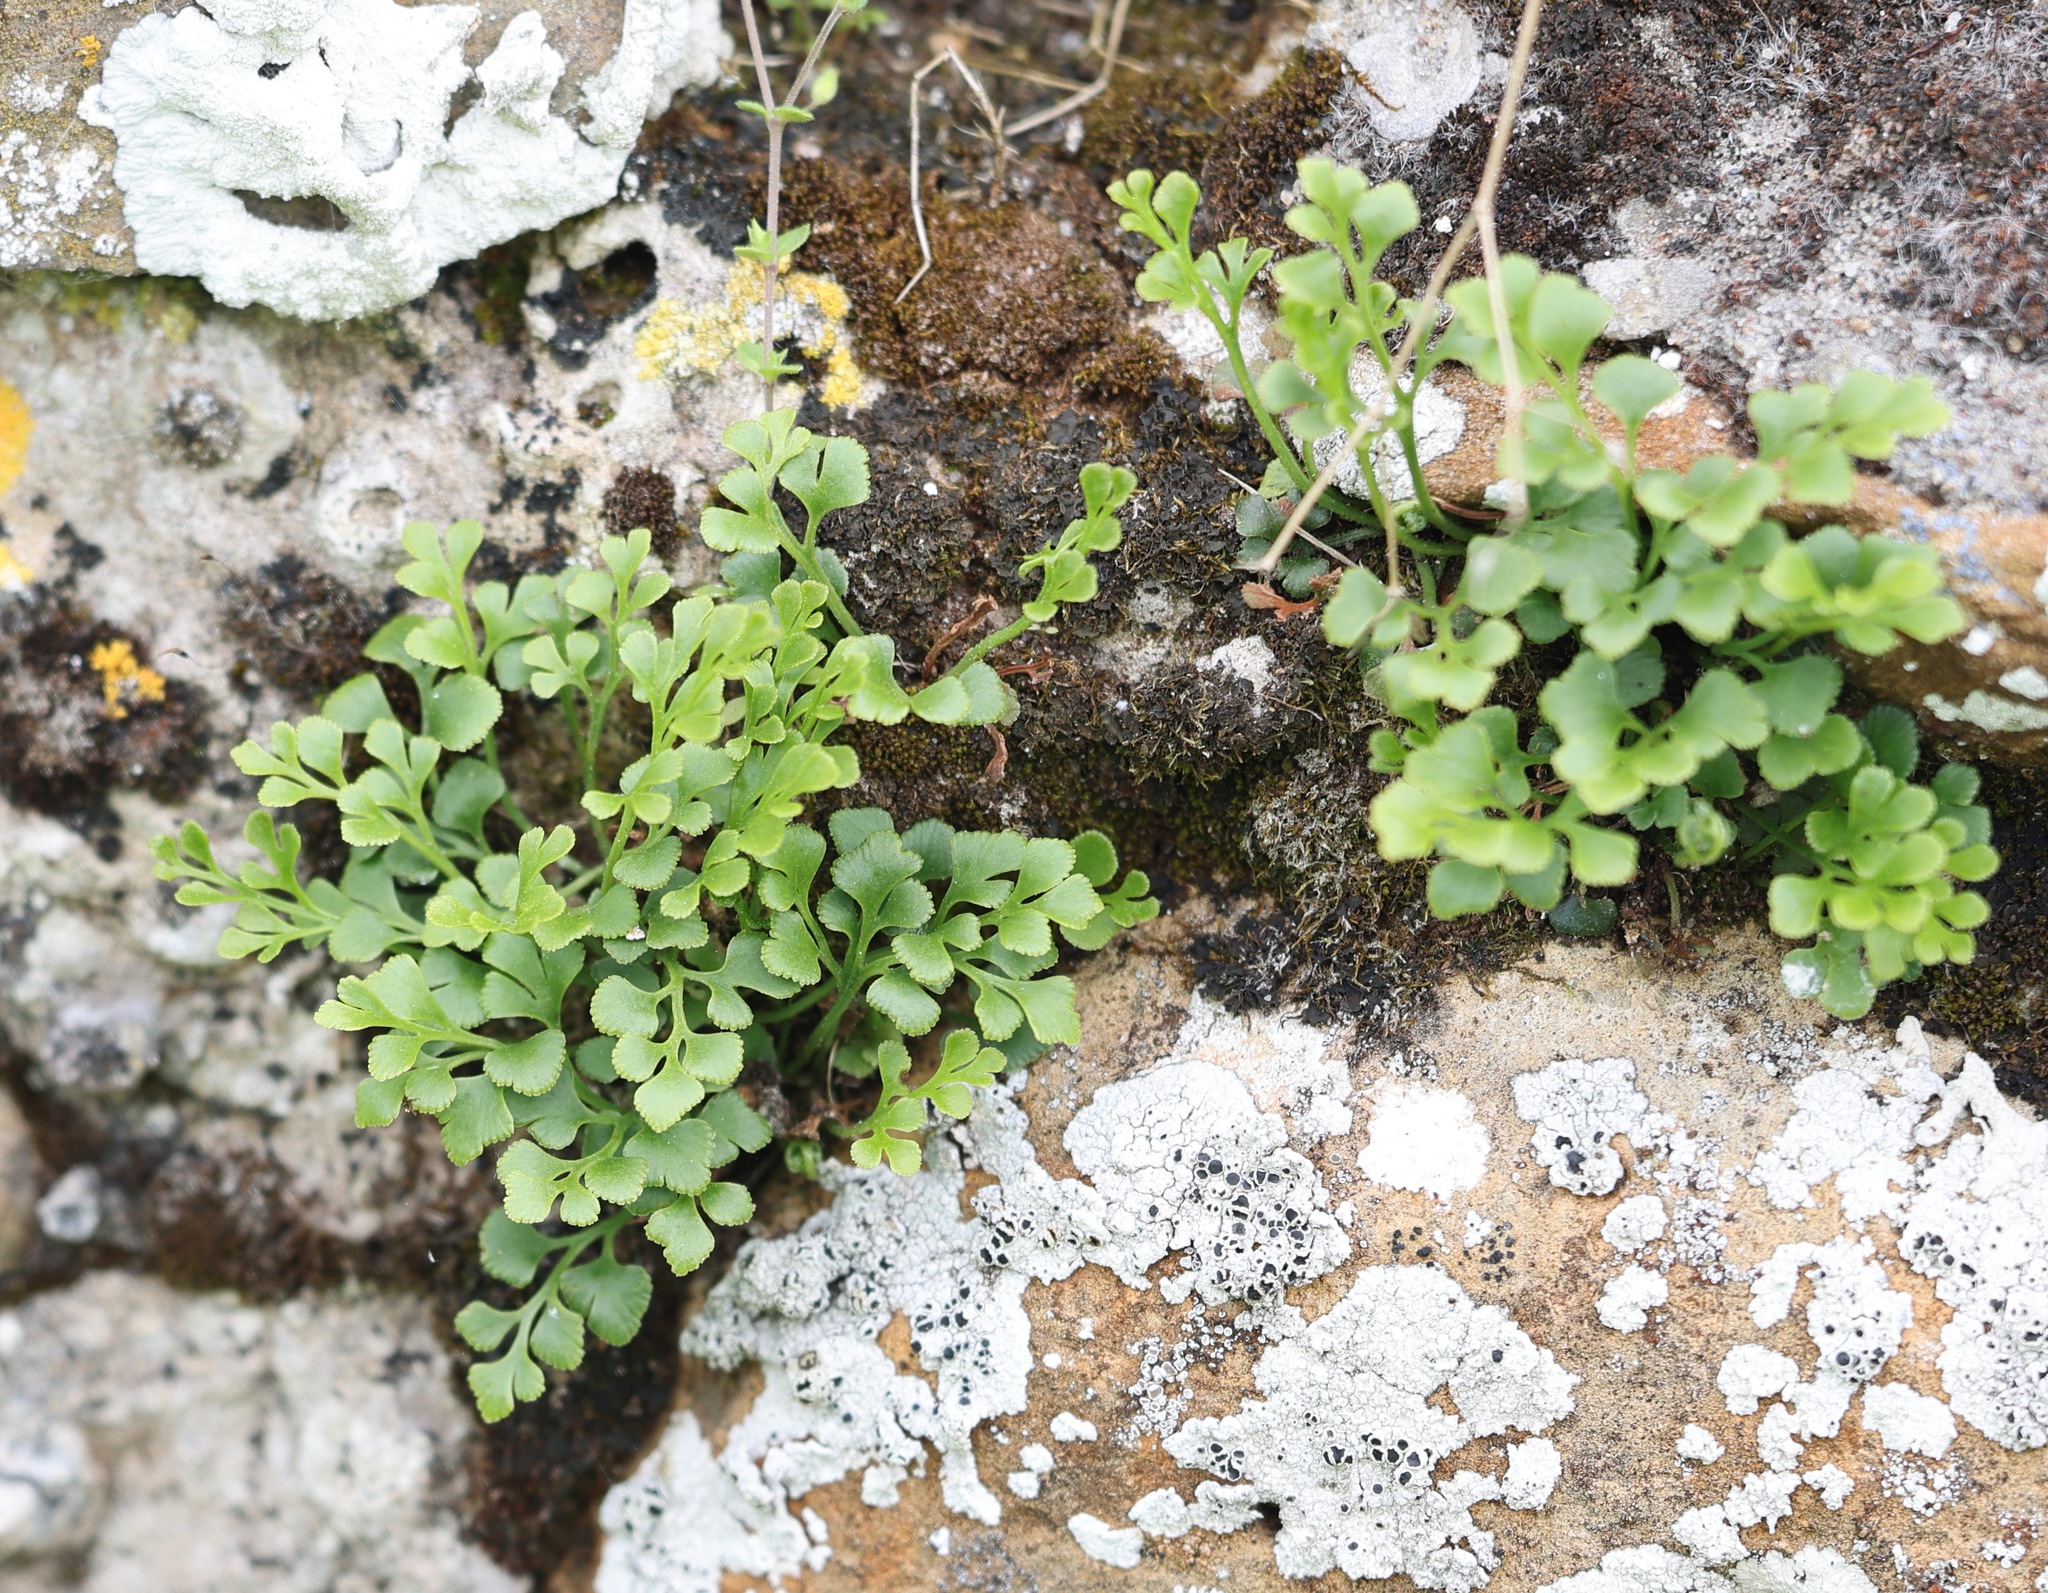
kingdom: Plantae
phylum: Tracheophyta
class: Polypodiopsida
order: Polypodiales
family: Aspleniaceae
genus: Asplenium
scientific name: Asplenium ruta-muraria
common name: Wall-rue
